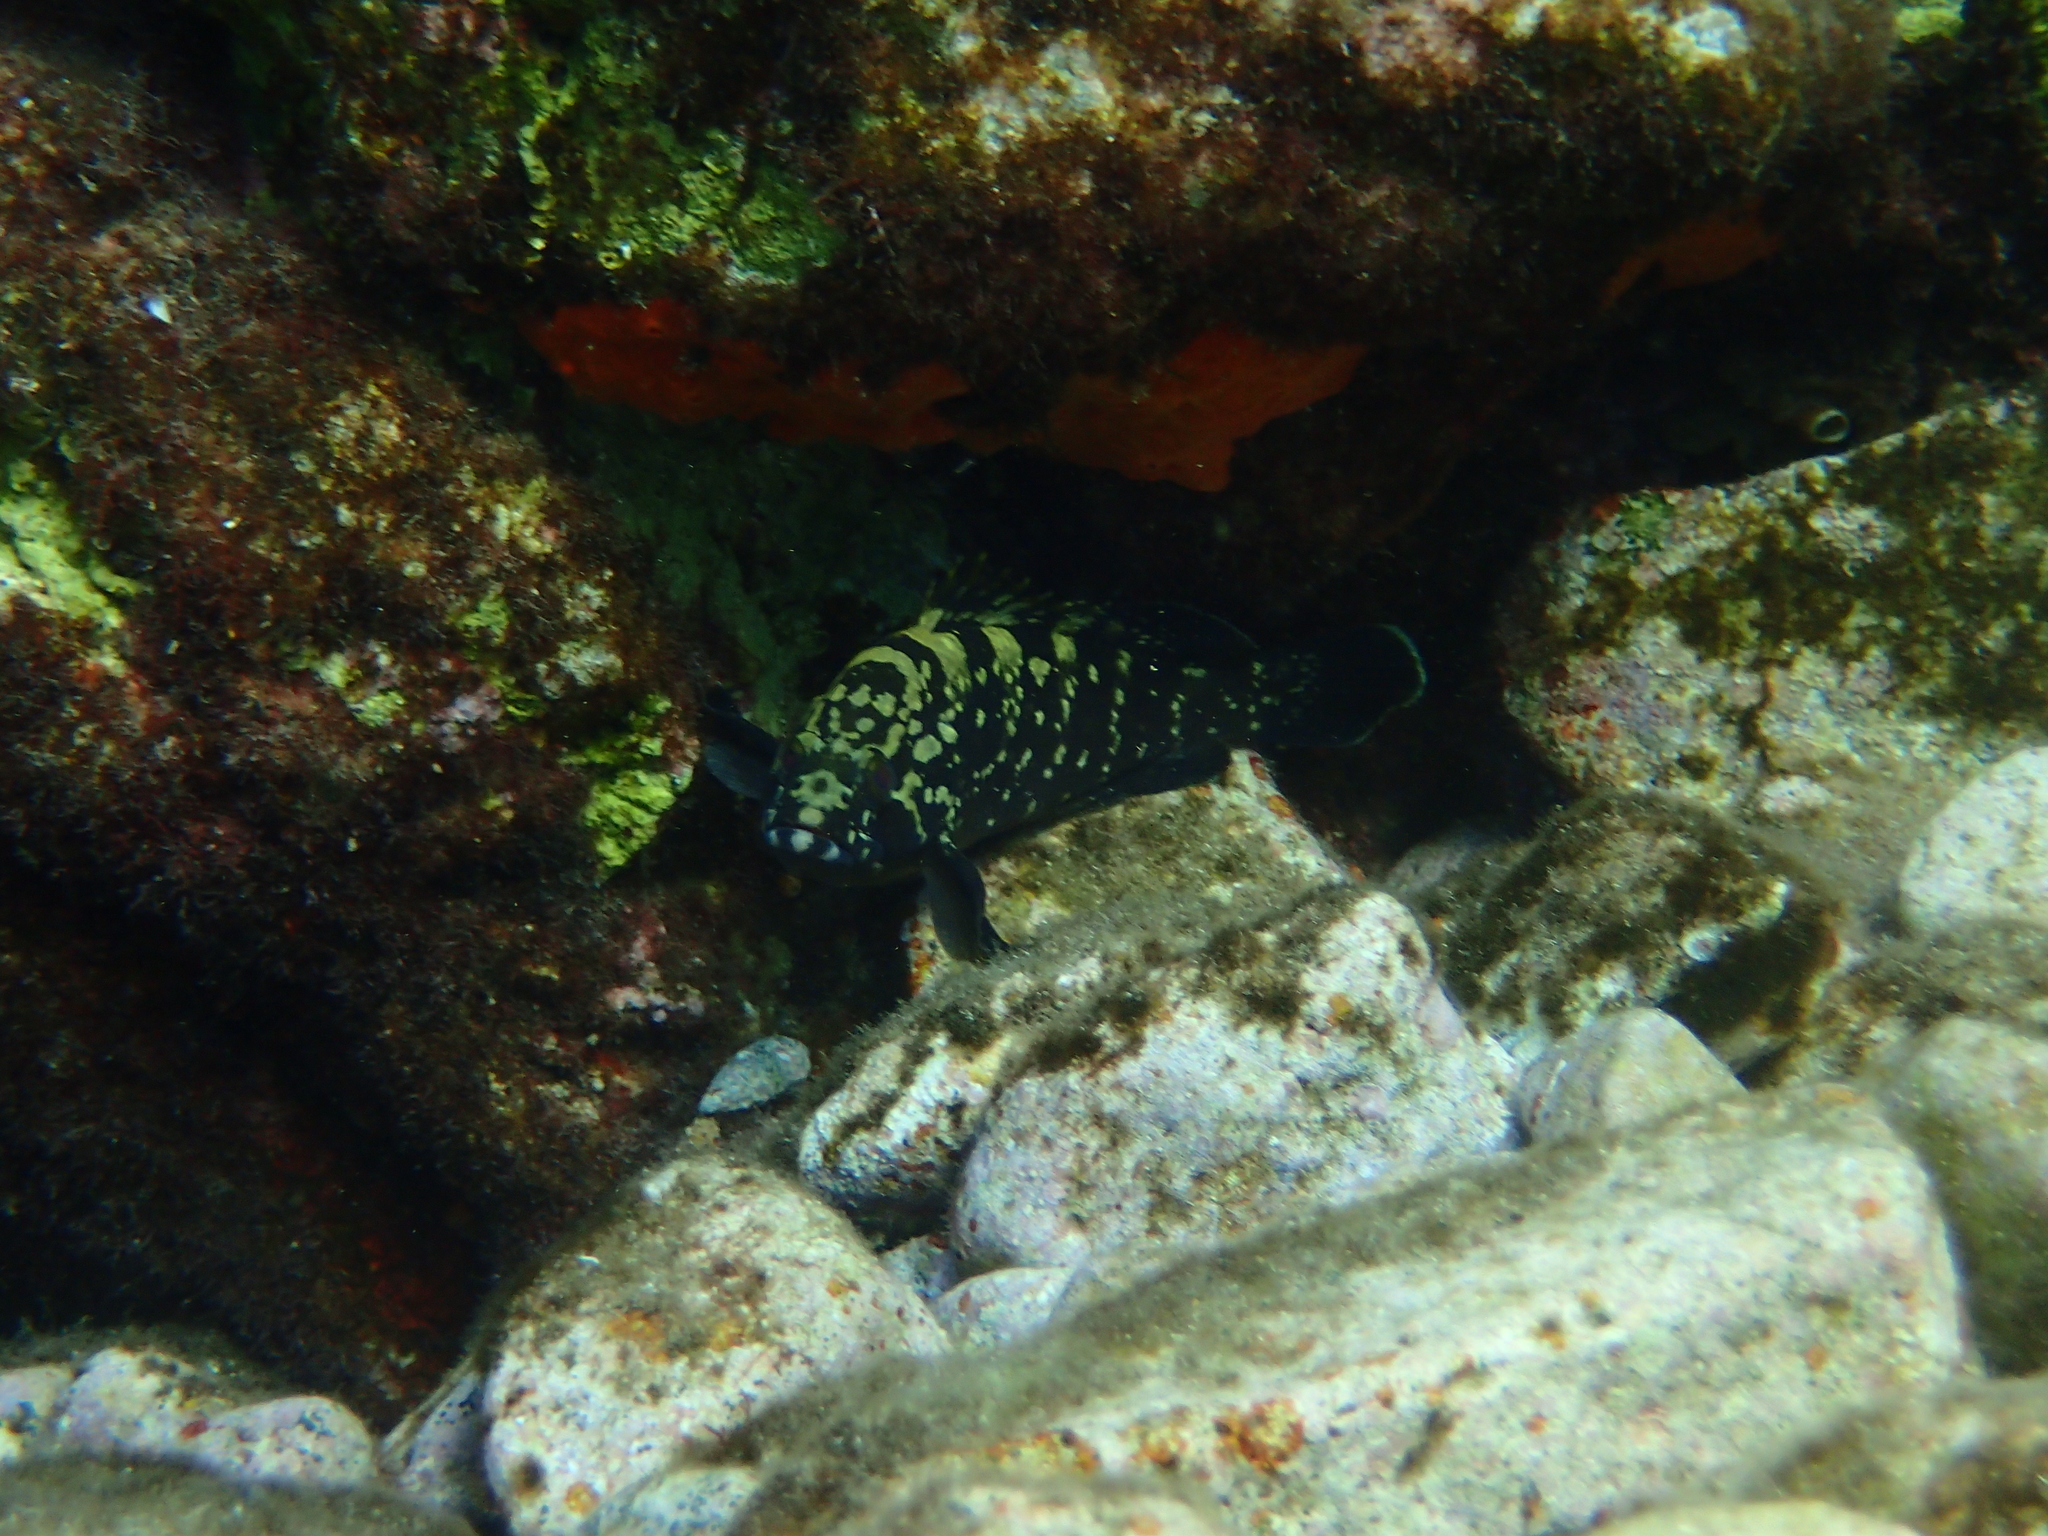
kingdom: Animalia
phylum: Chordata
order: Perciformes
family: Serranidae
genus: Epinephelus
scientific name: Epinephelus marginatus
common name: Dusky grouper
